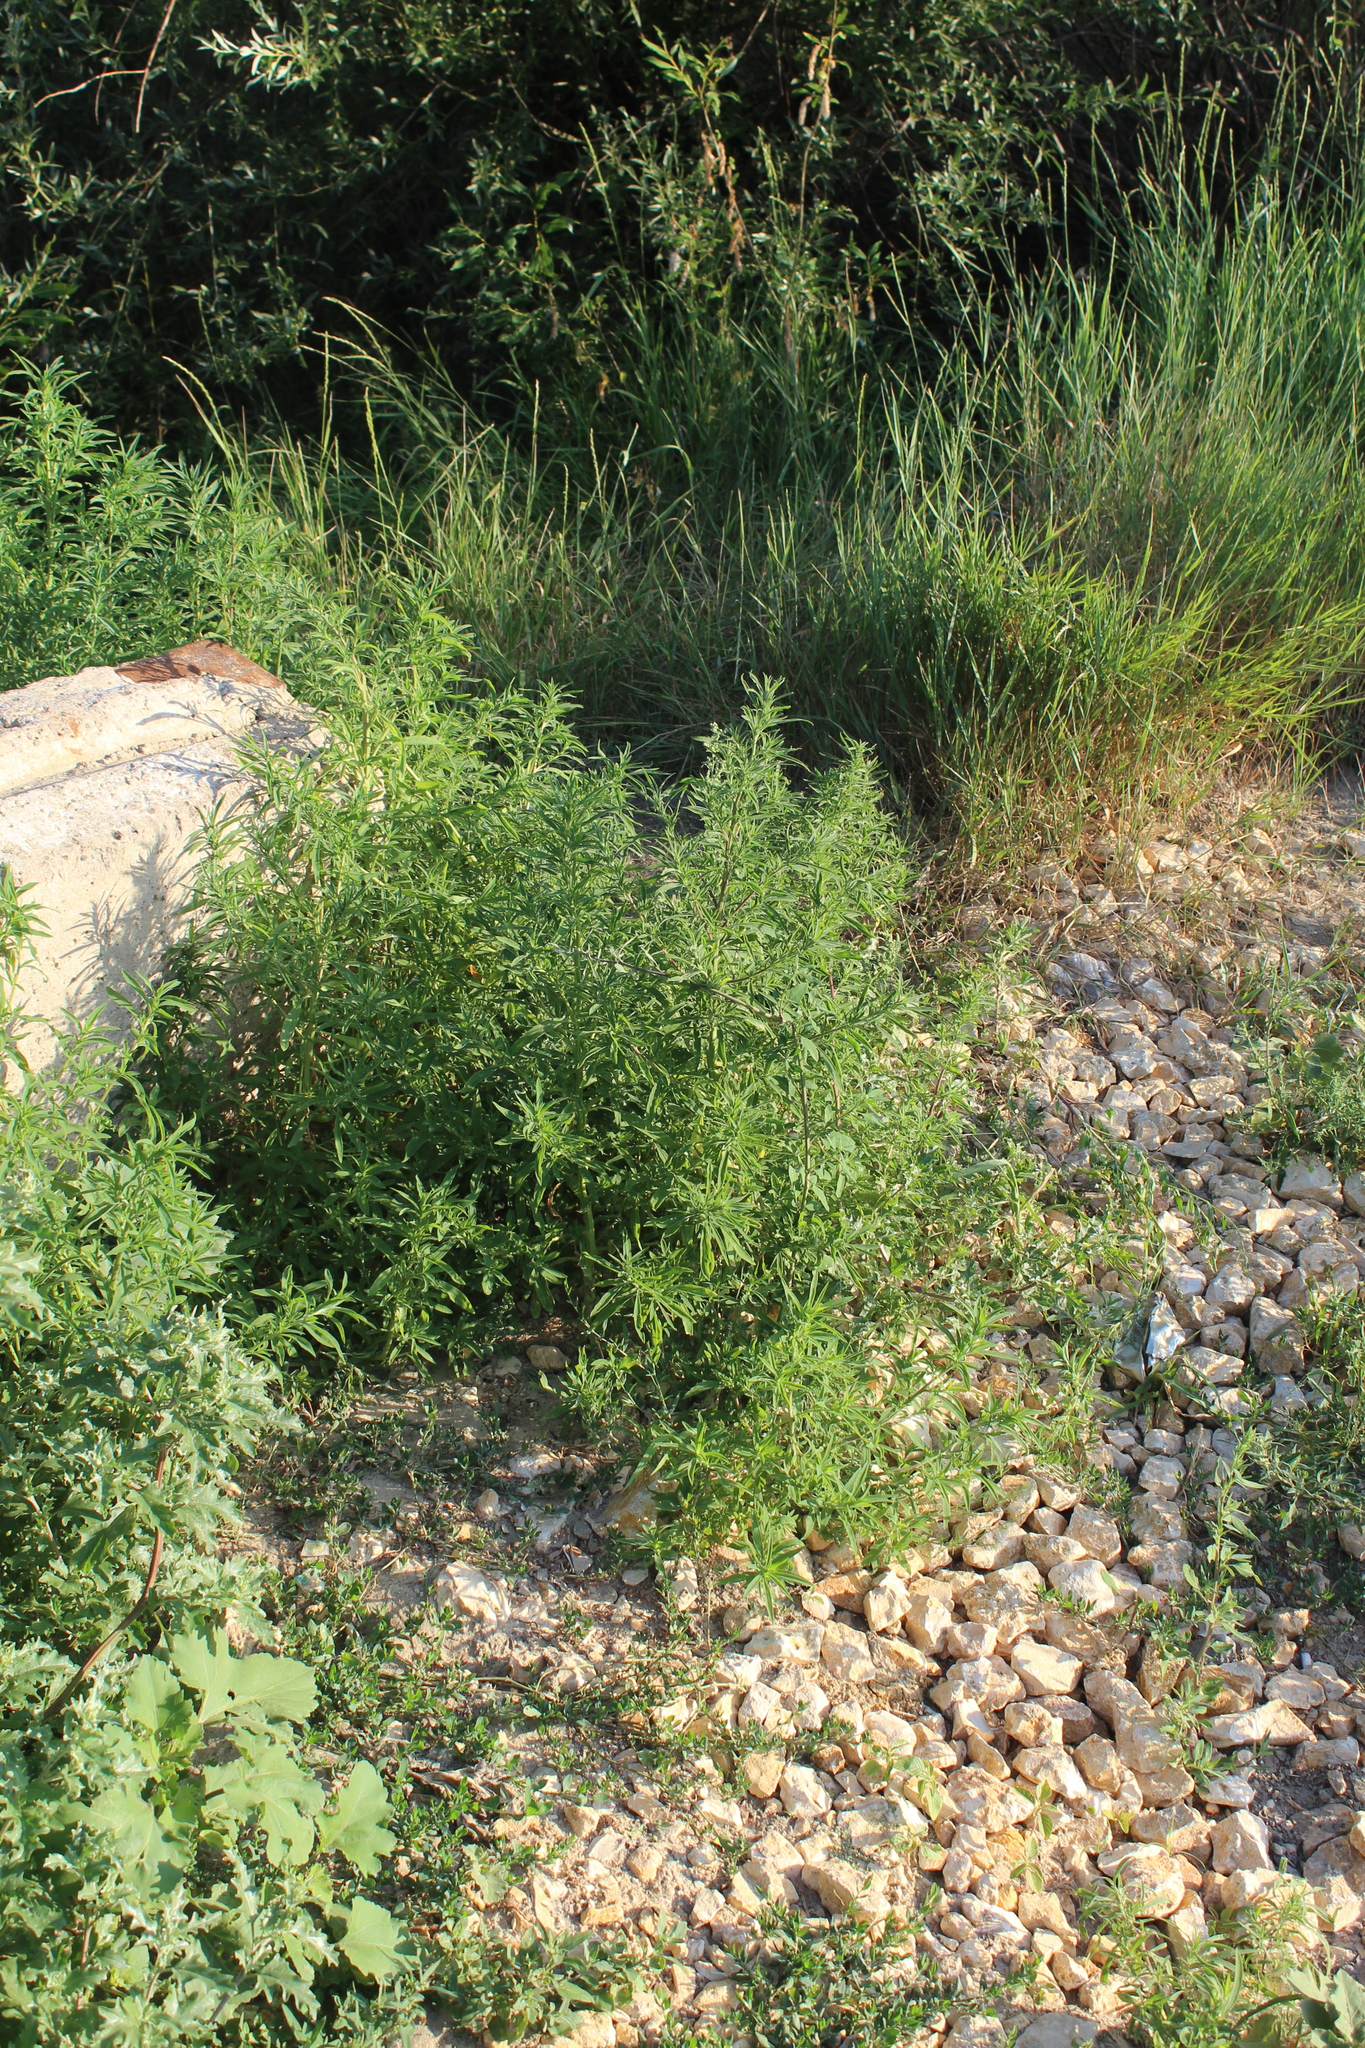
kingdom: Plantae
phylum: Tracheophyta
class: Magnoliopsida
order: Caryophyllales
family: Amaranthaceae
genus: Bassia
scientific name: Bassia scoparia
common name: Belvedere
